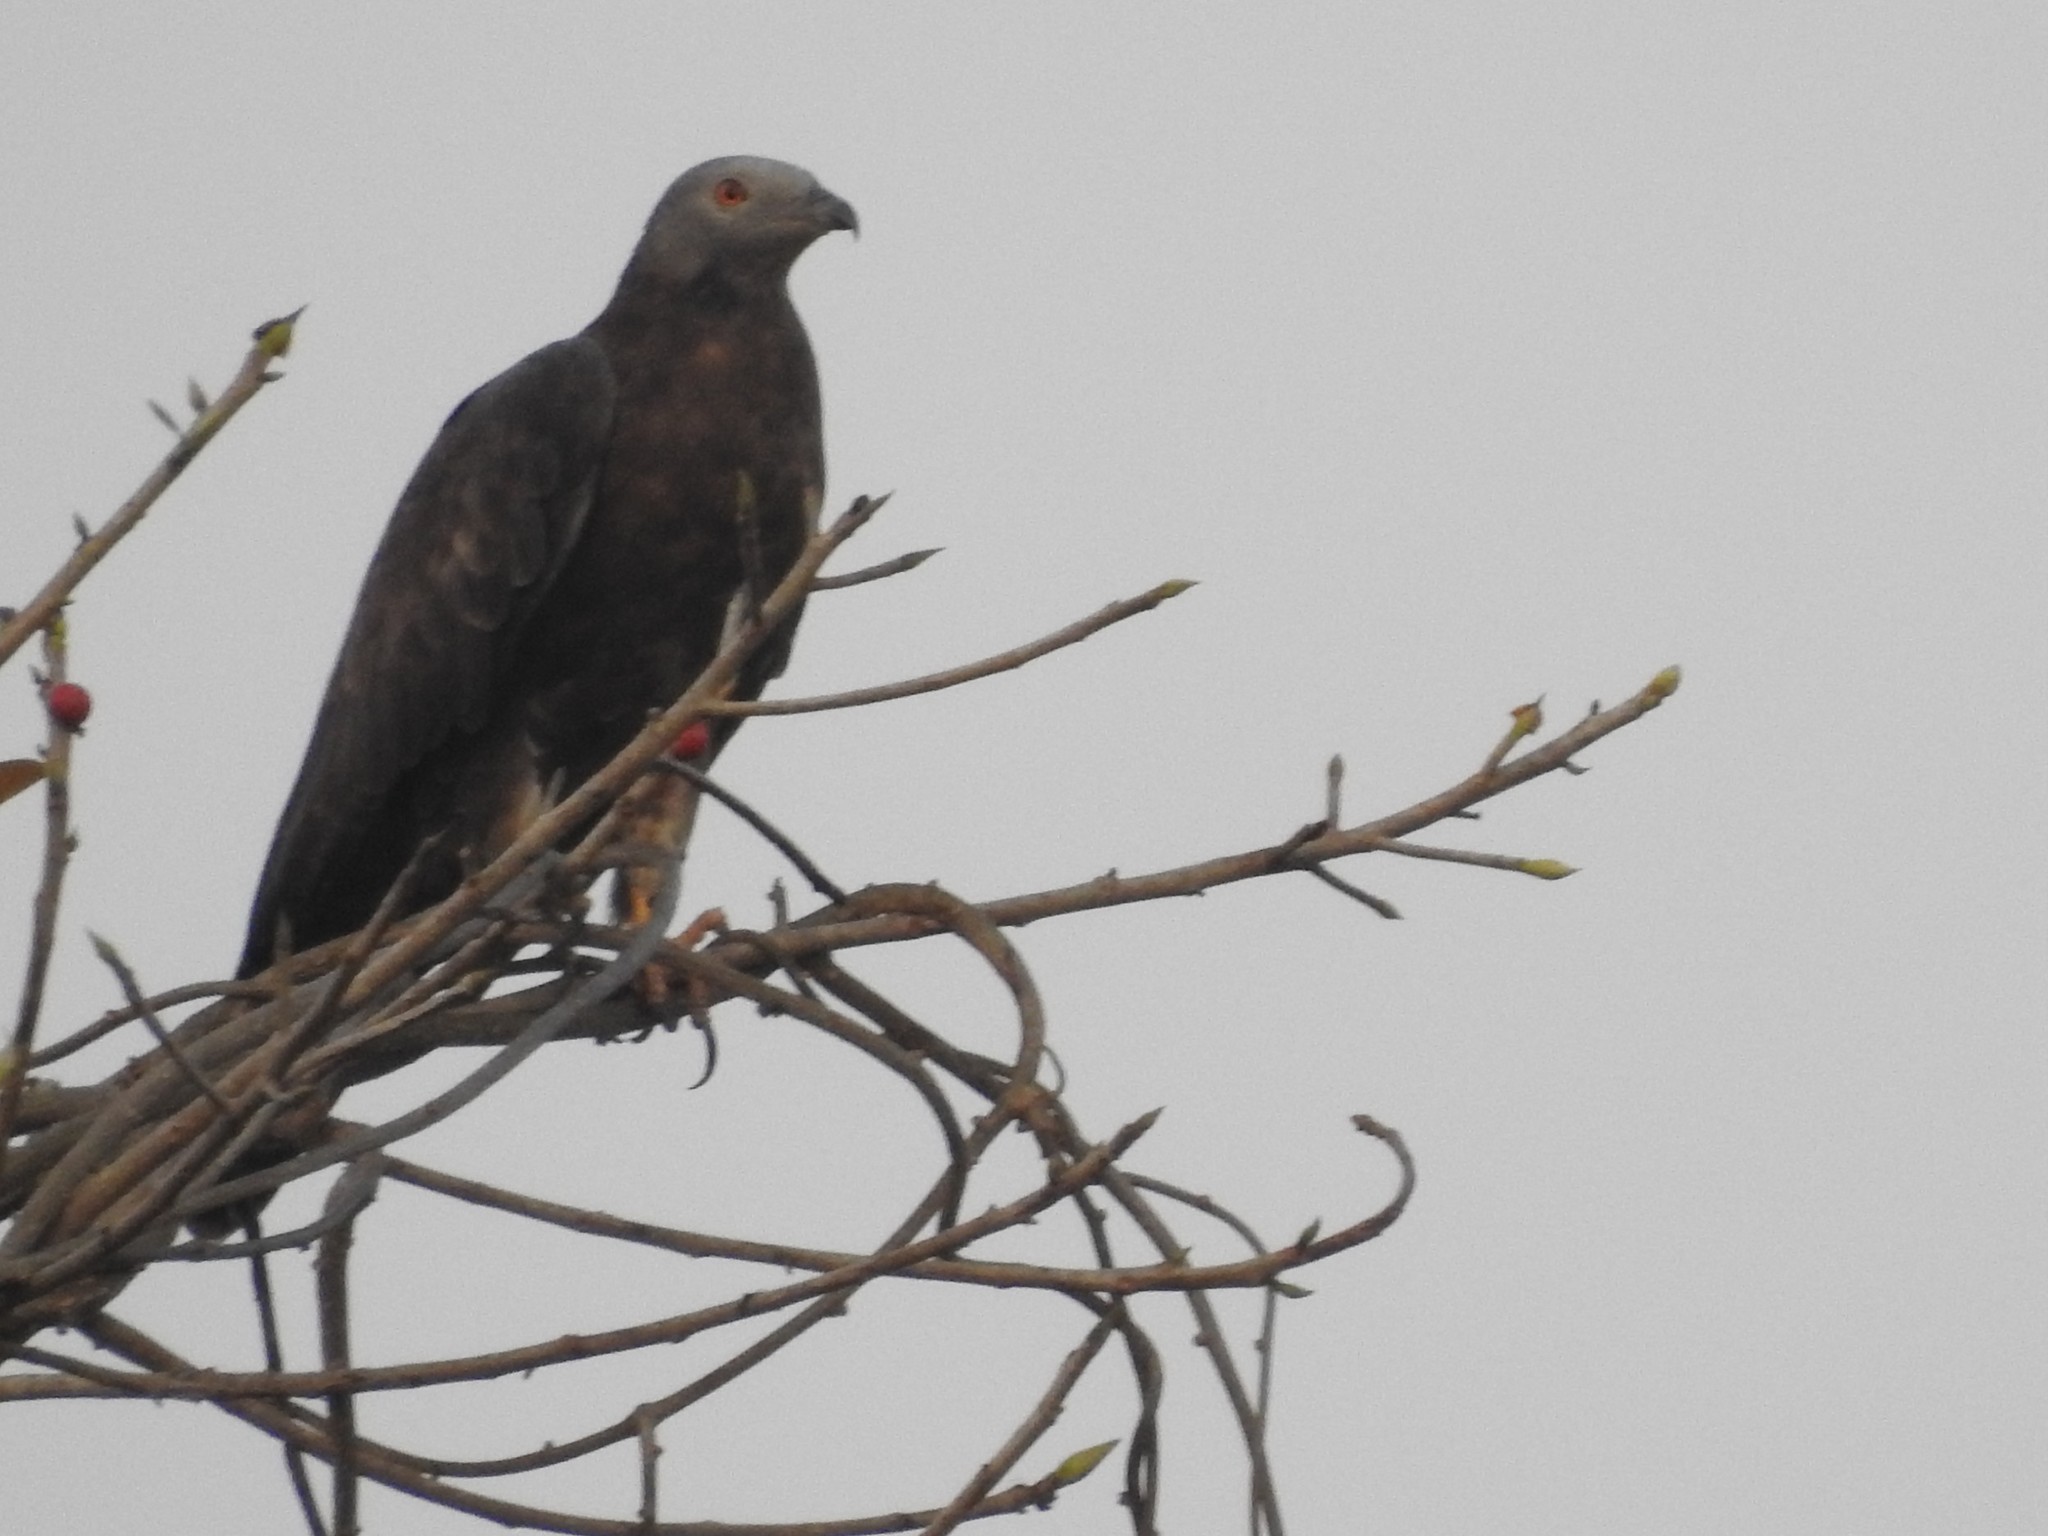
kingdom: Animalia
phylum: Chordata
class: Aves
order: Accipitriformes
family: Accipitridae
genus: Pernis
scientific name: Pernis ptilorhynchus
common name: Crested honey buzzard
